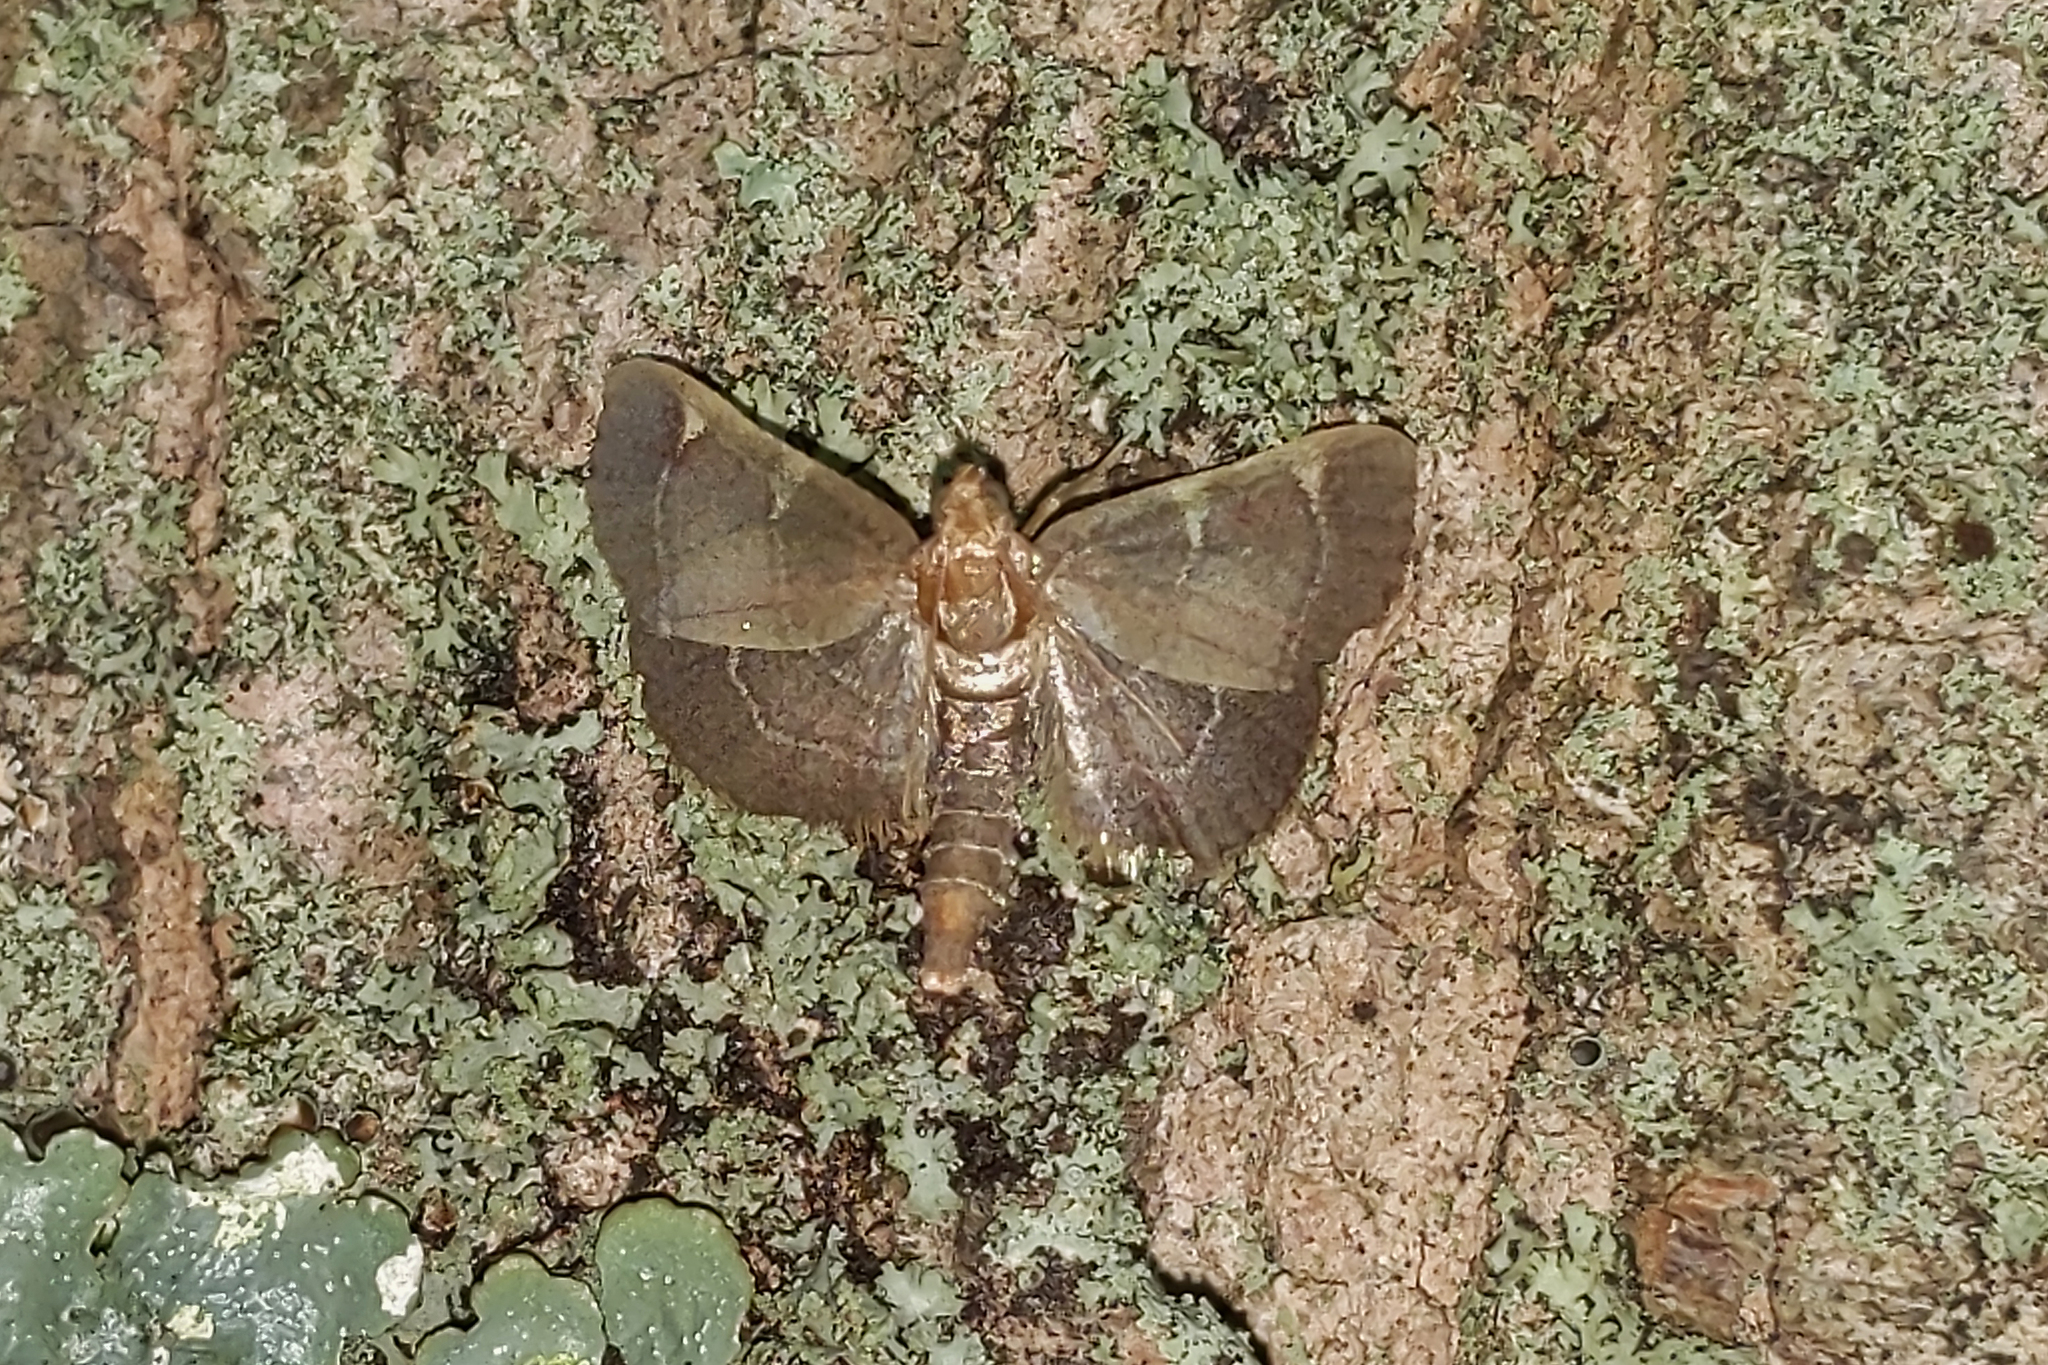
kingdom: Animalia
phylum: Arthropoda
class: Insecta
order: Lepidoptera
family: Pyralidae
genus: Hypsopygia
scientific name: Hypsopygia olinalis
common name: Yellow-fringed dolichomia moth
